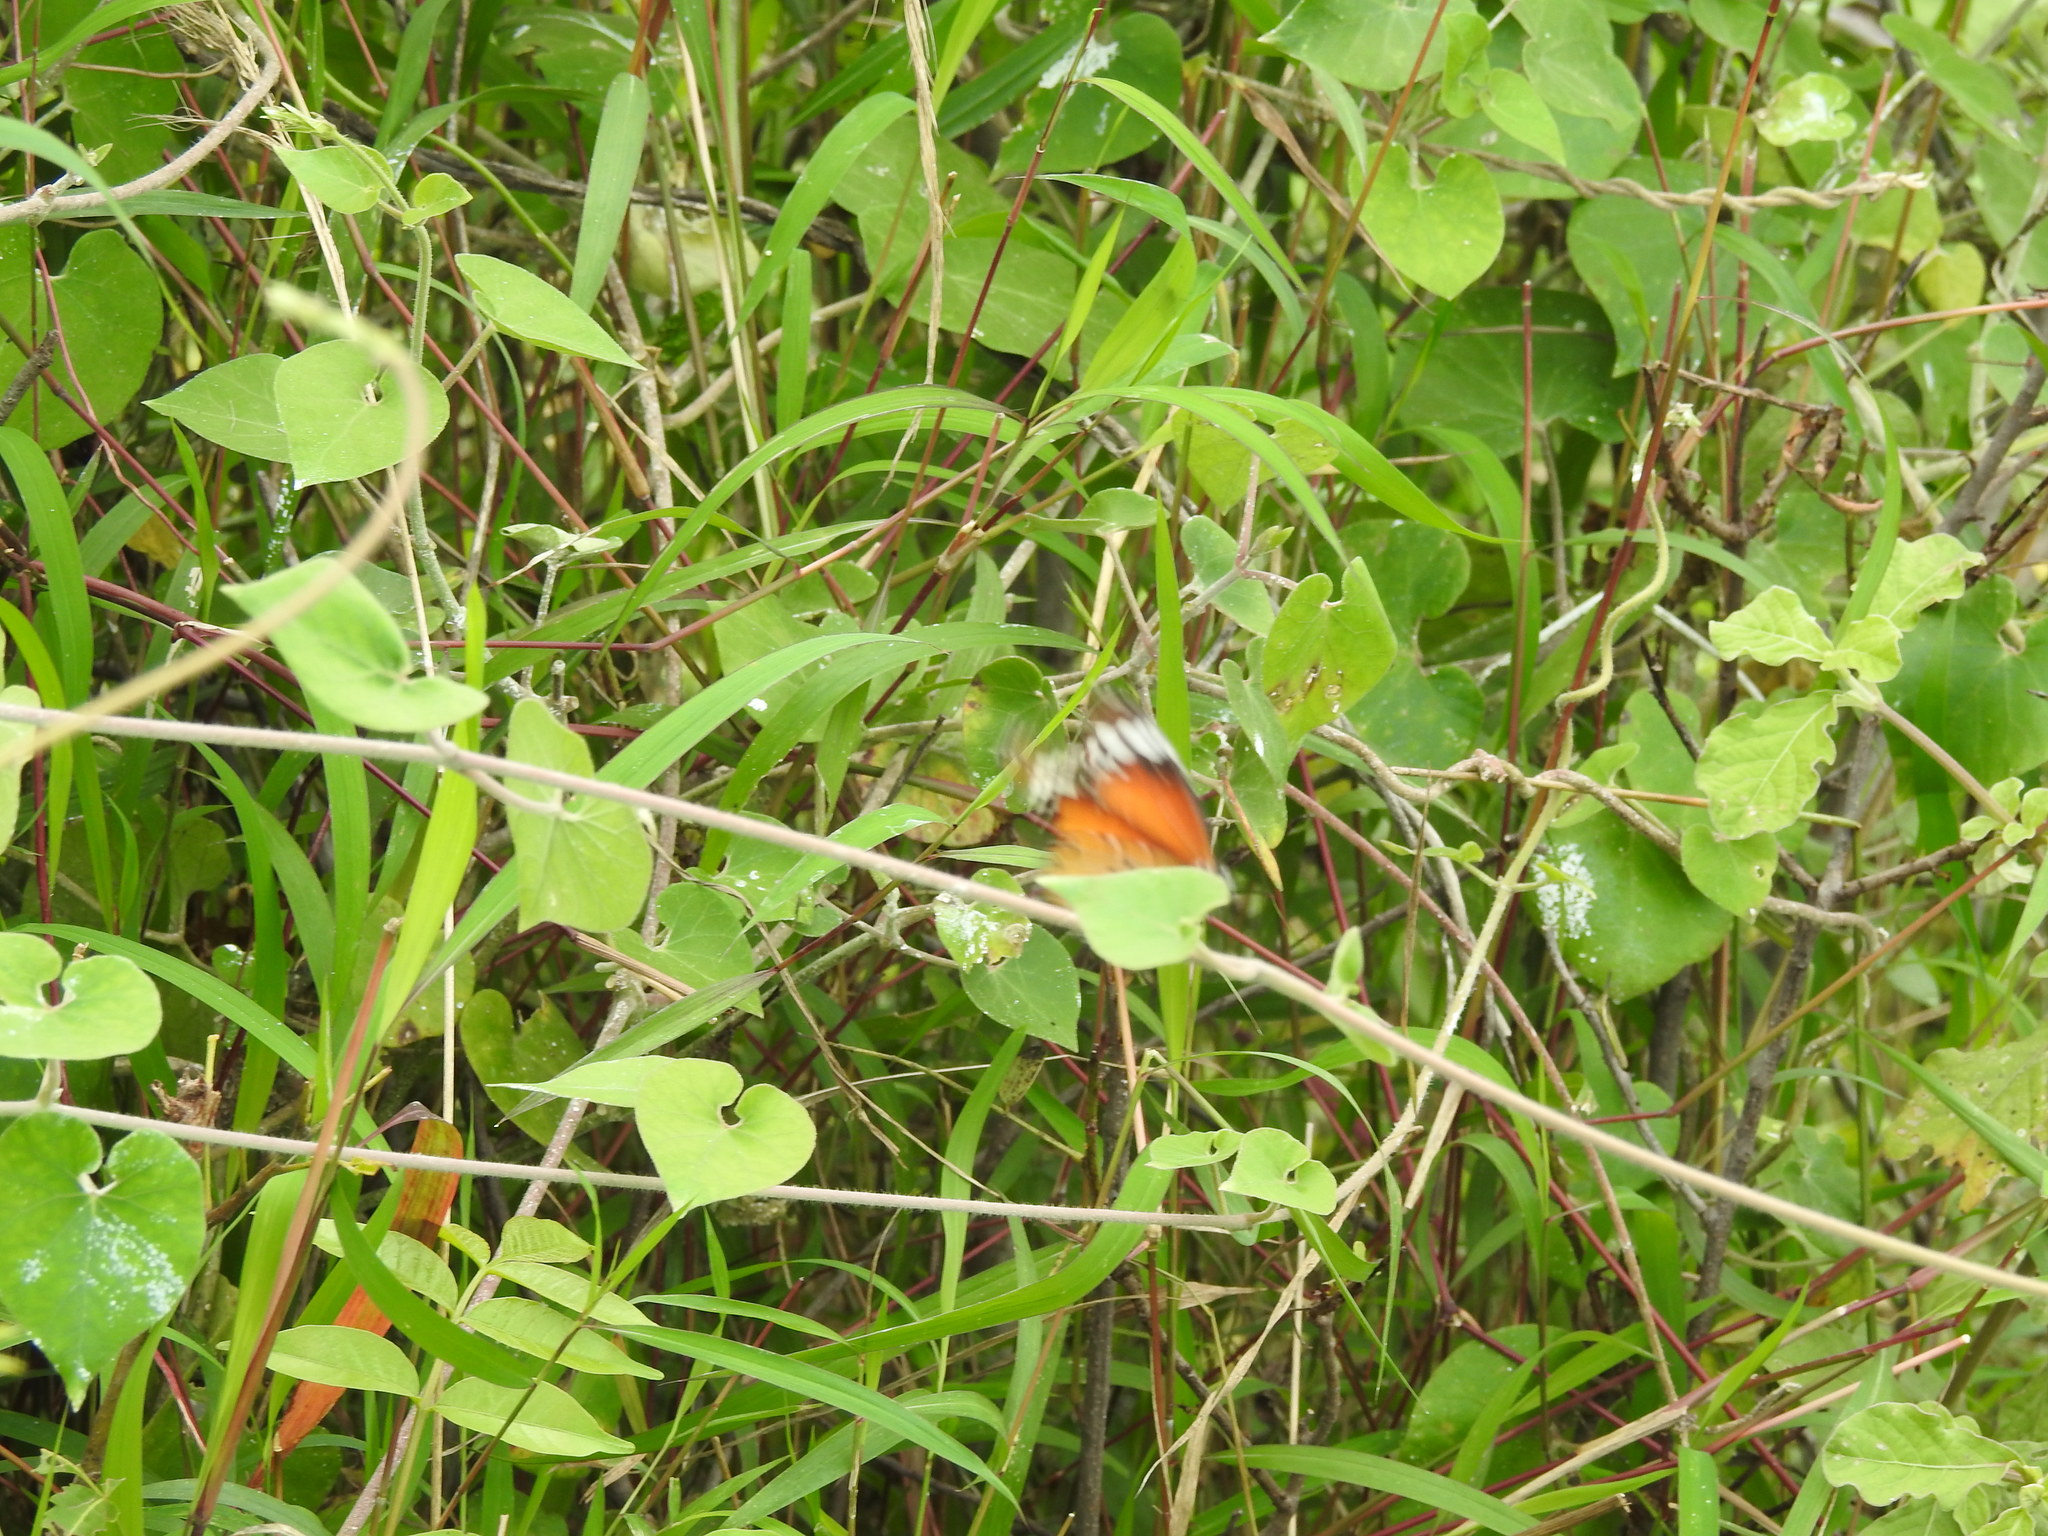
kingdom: Animalia
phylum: Arthropoda
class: Insecta
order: Lepidoptera
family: Nymphalidae
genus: Danaus
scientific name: Danaus chrysippus
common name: Plain tiger
